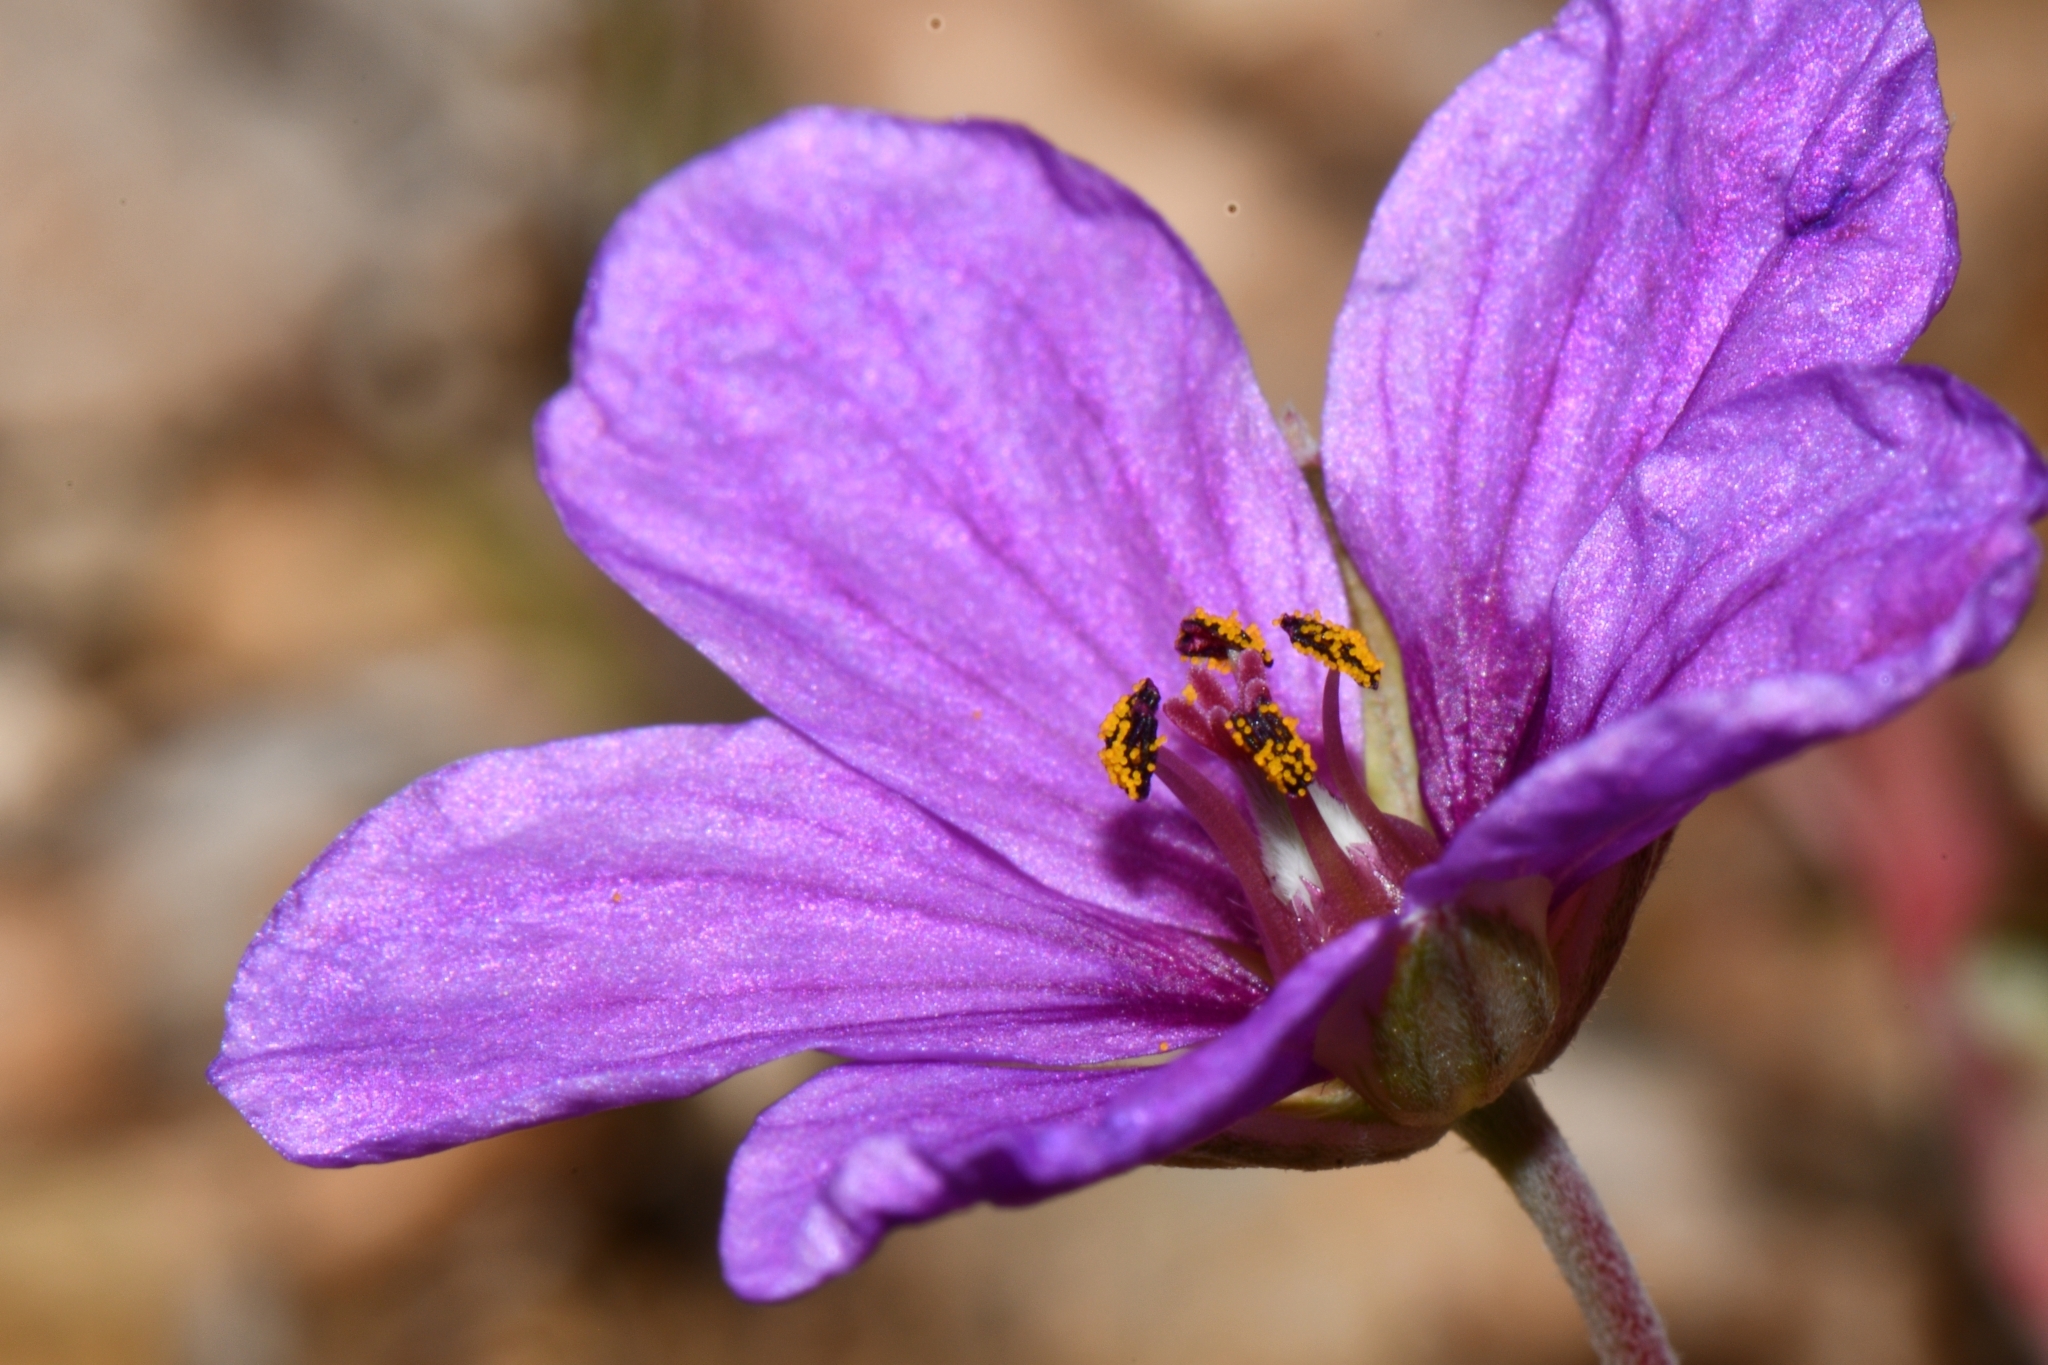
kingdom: Plantae
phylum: Tracheophyta
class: Magnoliopsida
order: Geraniales
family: Geraniaceae
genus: Erodium
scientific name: Erodium texanum
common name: Texas stork's-bill
